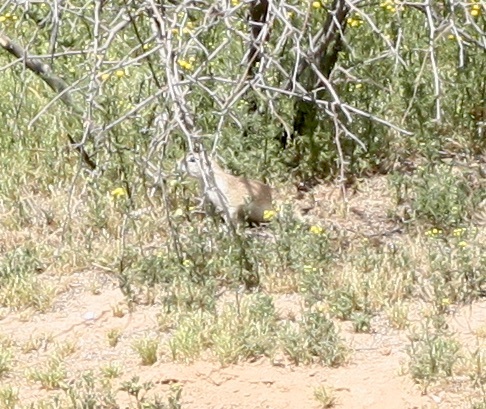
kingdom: Animalia
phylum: Chordata
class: Mammalia
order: Rodentia
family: Sciuridae
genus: Xerospermophilus
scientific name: Xerospermophilus tereticaudus
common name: Round-tailed ground squirrel
